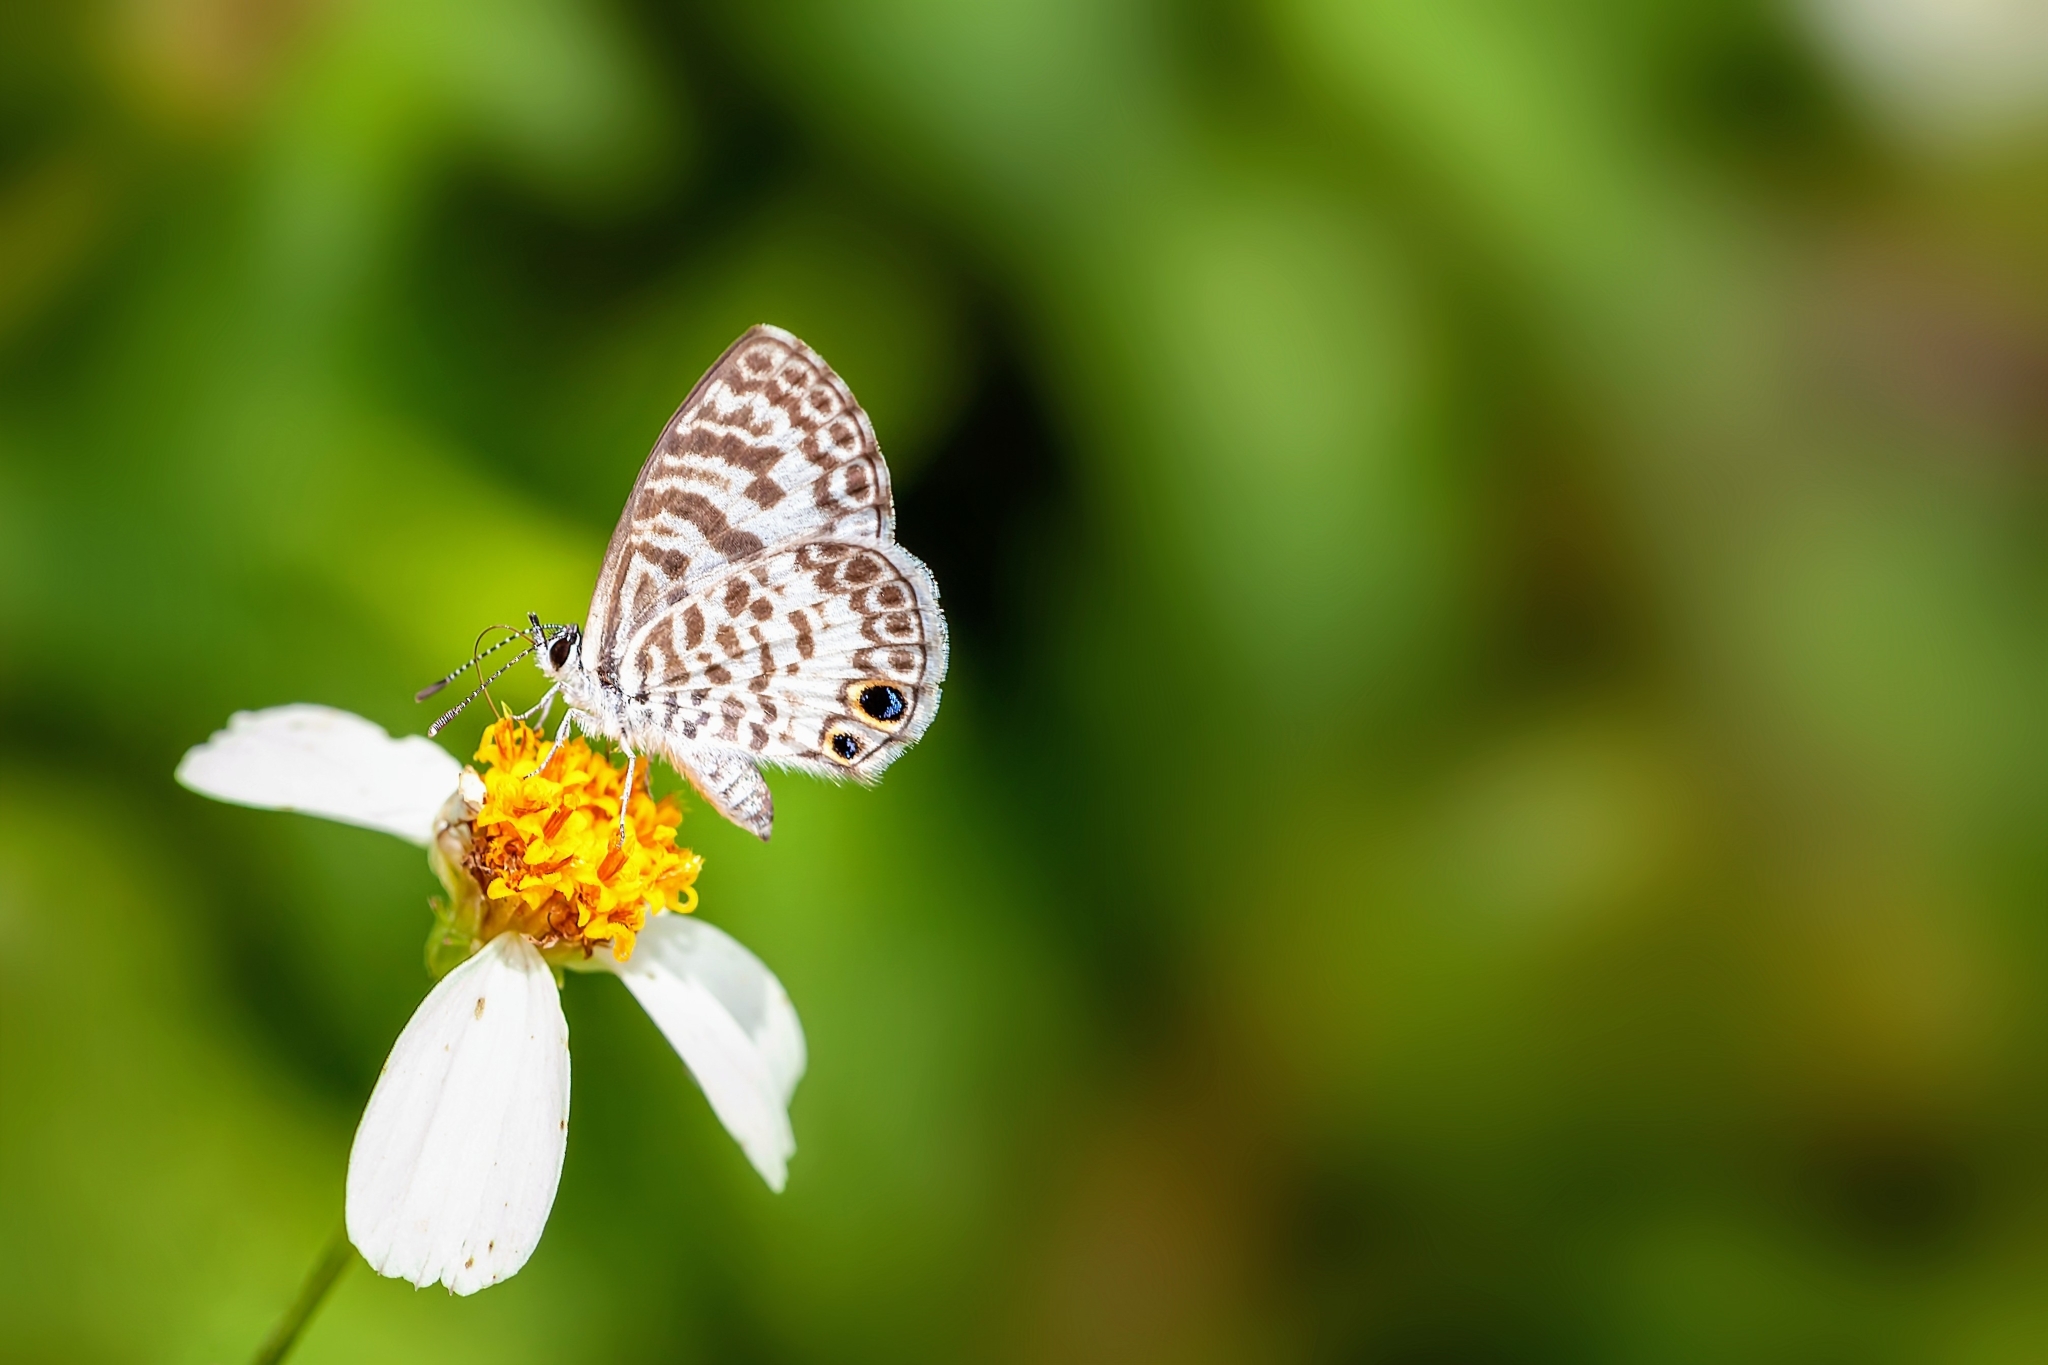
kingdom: Animalia
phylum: Arthropoda
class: Insecta
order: Lepidoptera
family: Lycaenidae
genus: Leptotes
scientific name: Leptotes cassius
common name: Cassius blue
